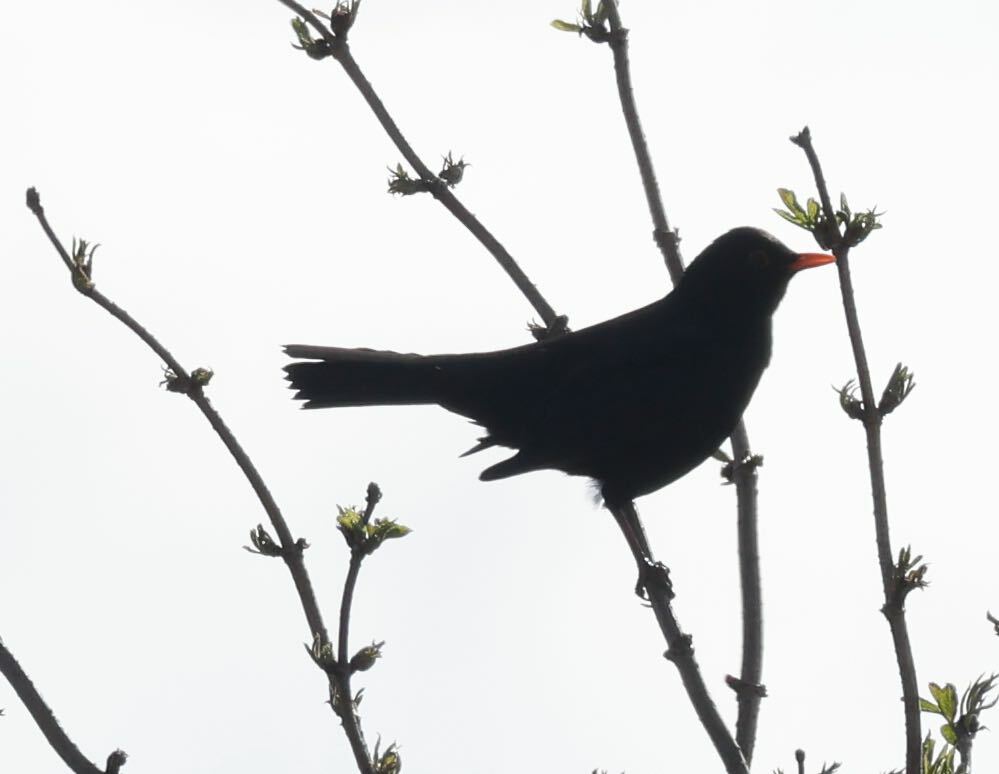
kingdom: Animalia
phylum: Chordata
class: Aves
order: Passeriformes
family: Turdidae
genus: Turdus
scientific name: Turdus merula
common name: Common blackbird
